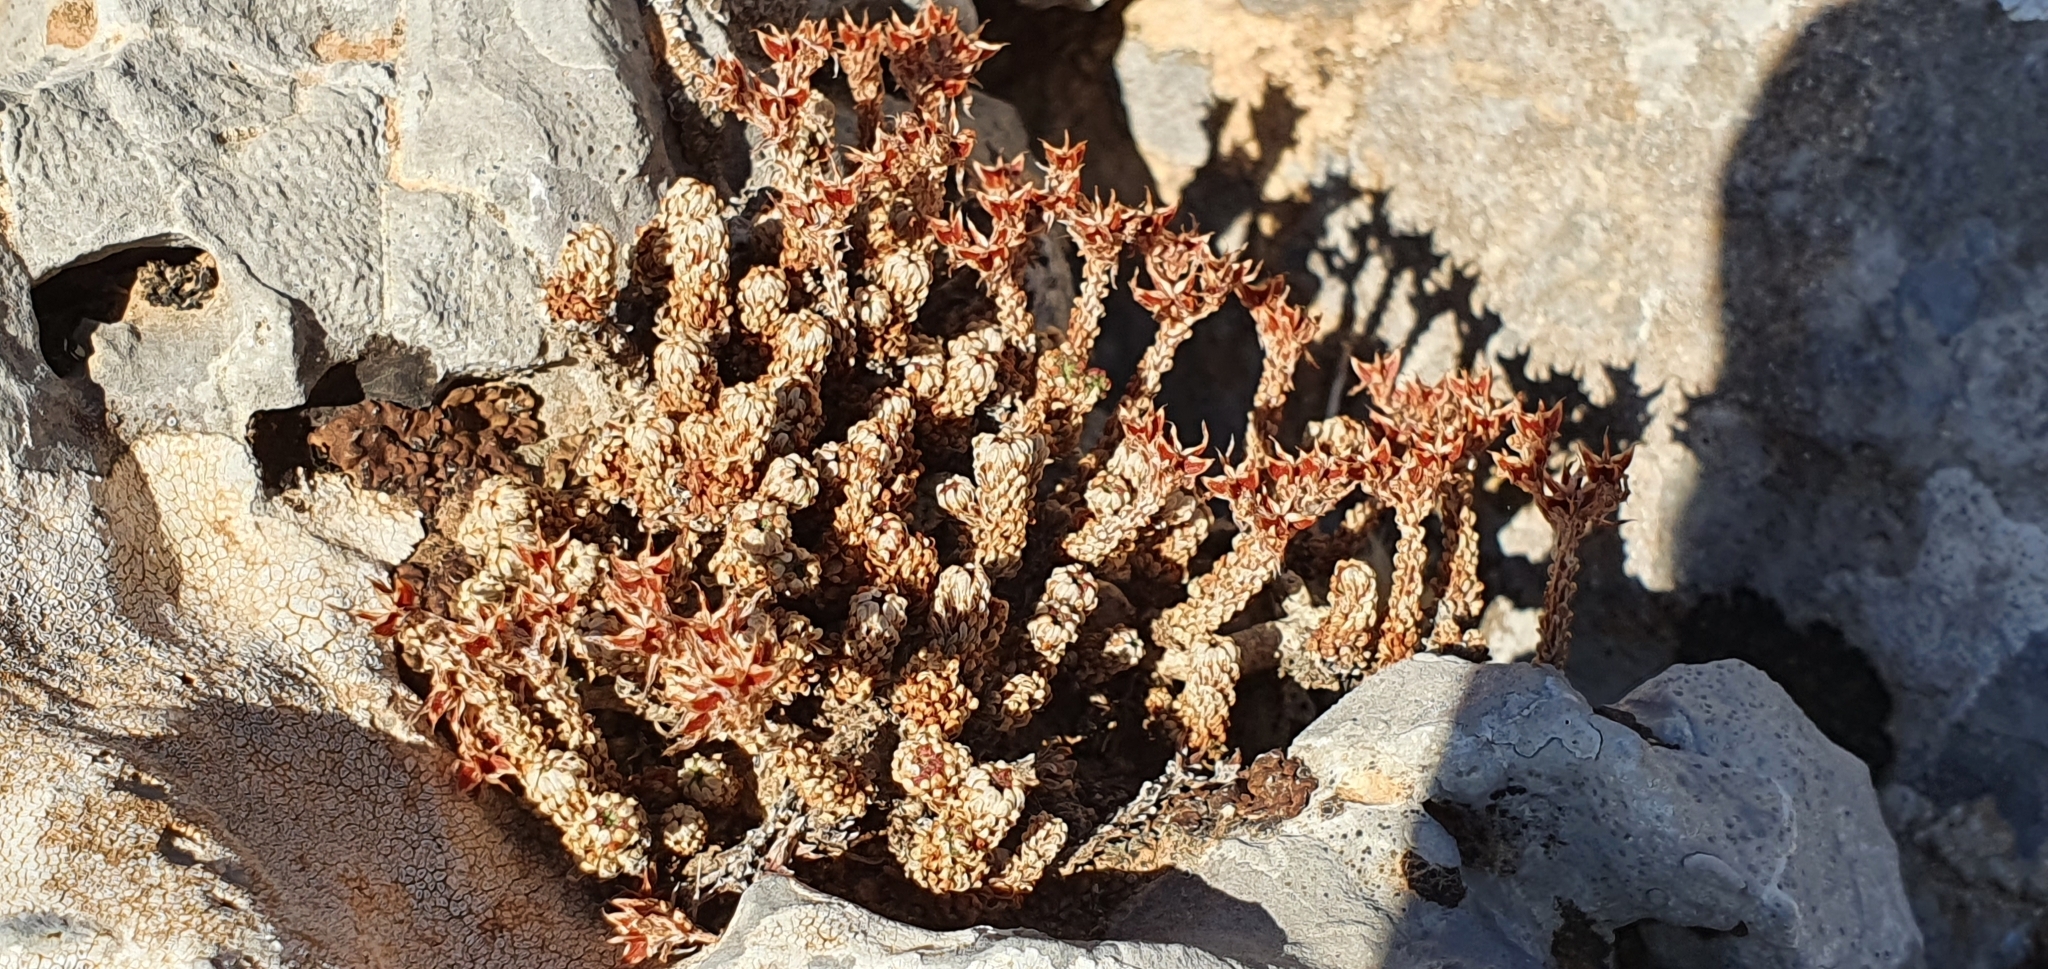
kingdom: Plantae
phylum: Tracheophyta
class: Magnoliopsida
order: Saxifragales
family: Crassulaceae
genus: Sedum
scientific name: Sedum multiceps
